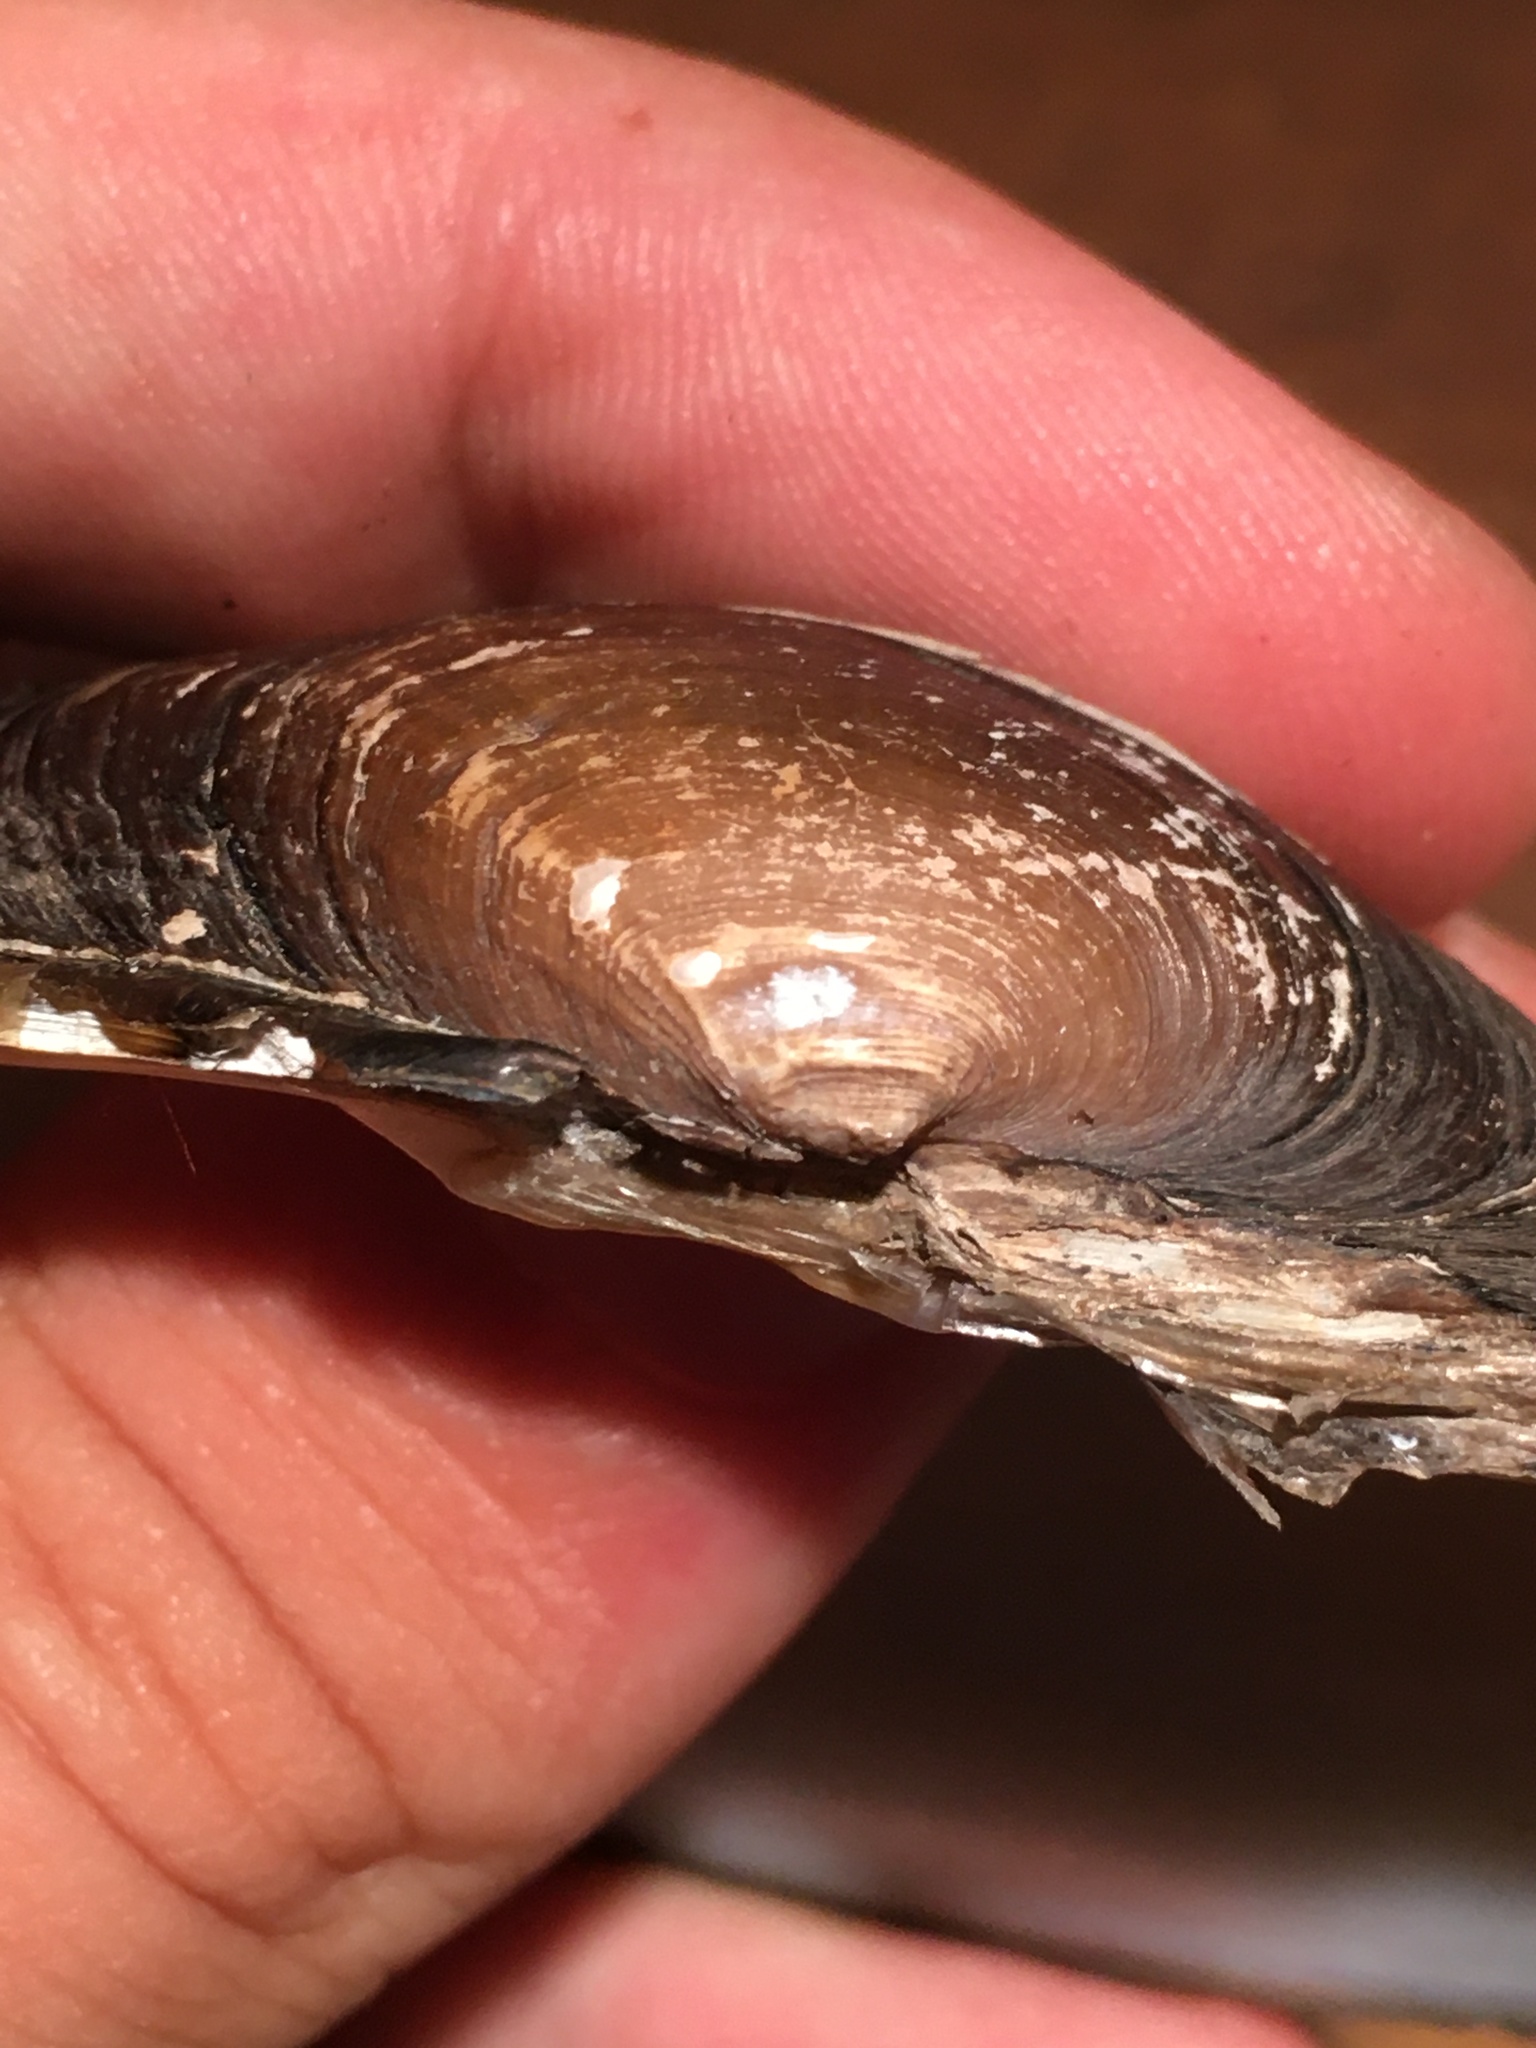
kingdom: Animalia
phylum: Mollusca
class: Bivalvia
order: Unionida
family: Unionidae
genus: Strophitus
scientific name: Strophitus undulatus
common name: Creeper
